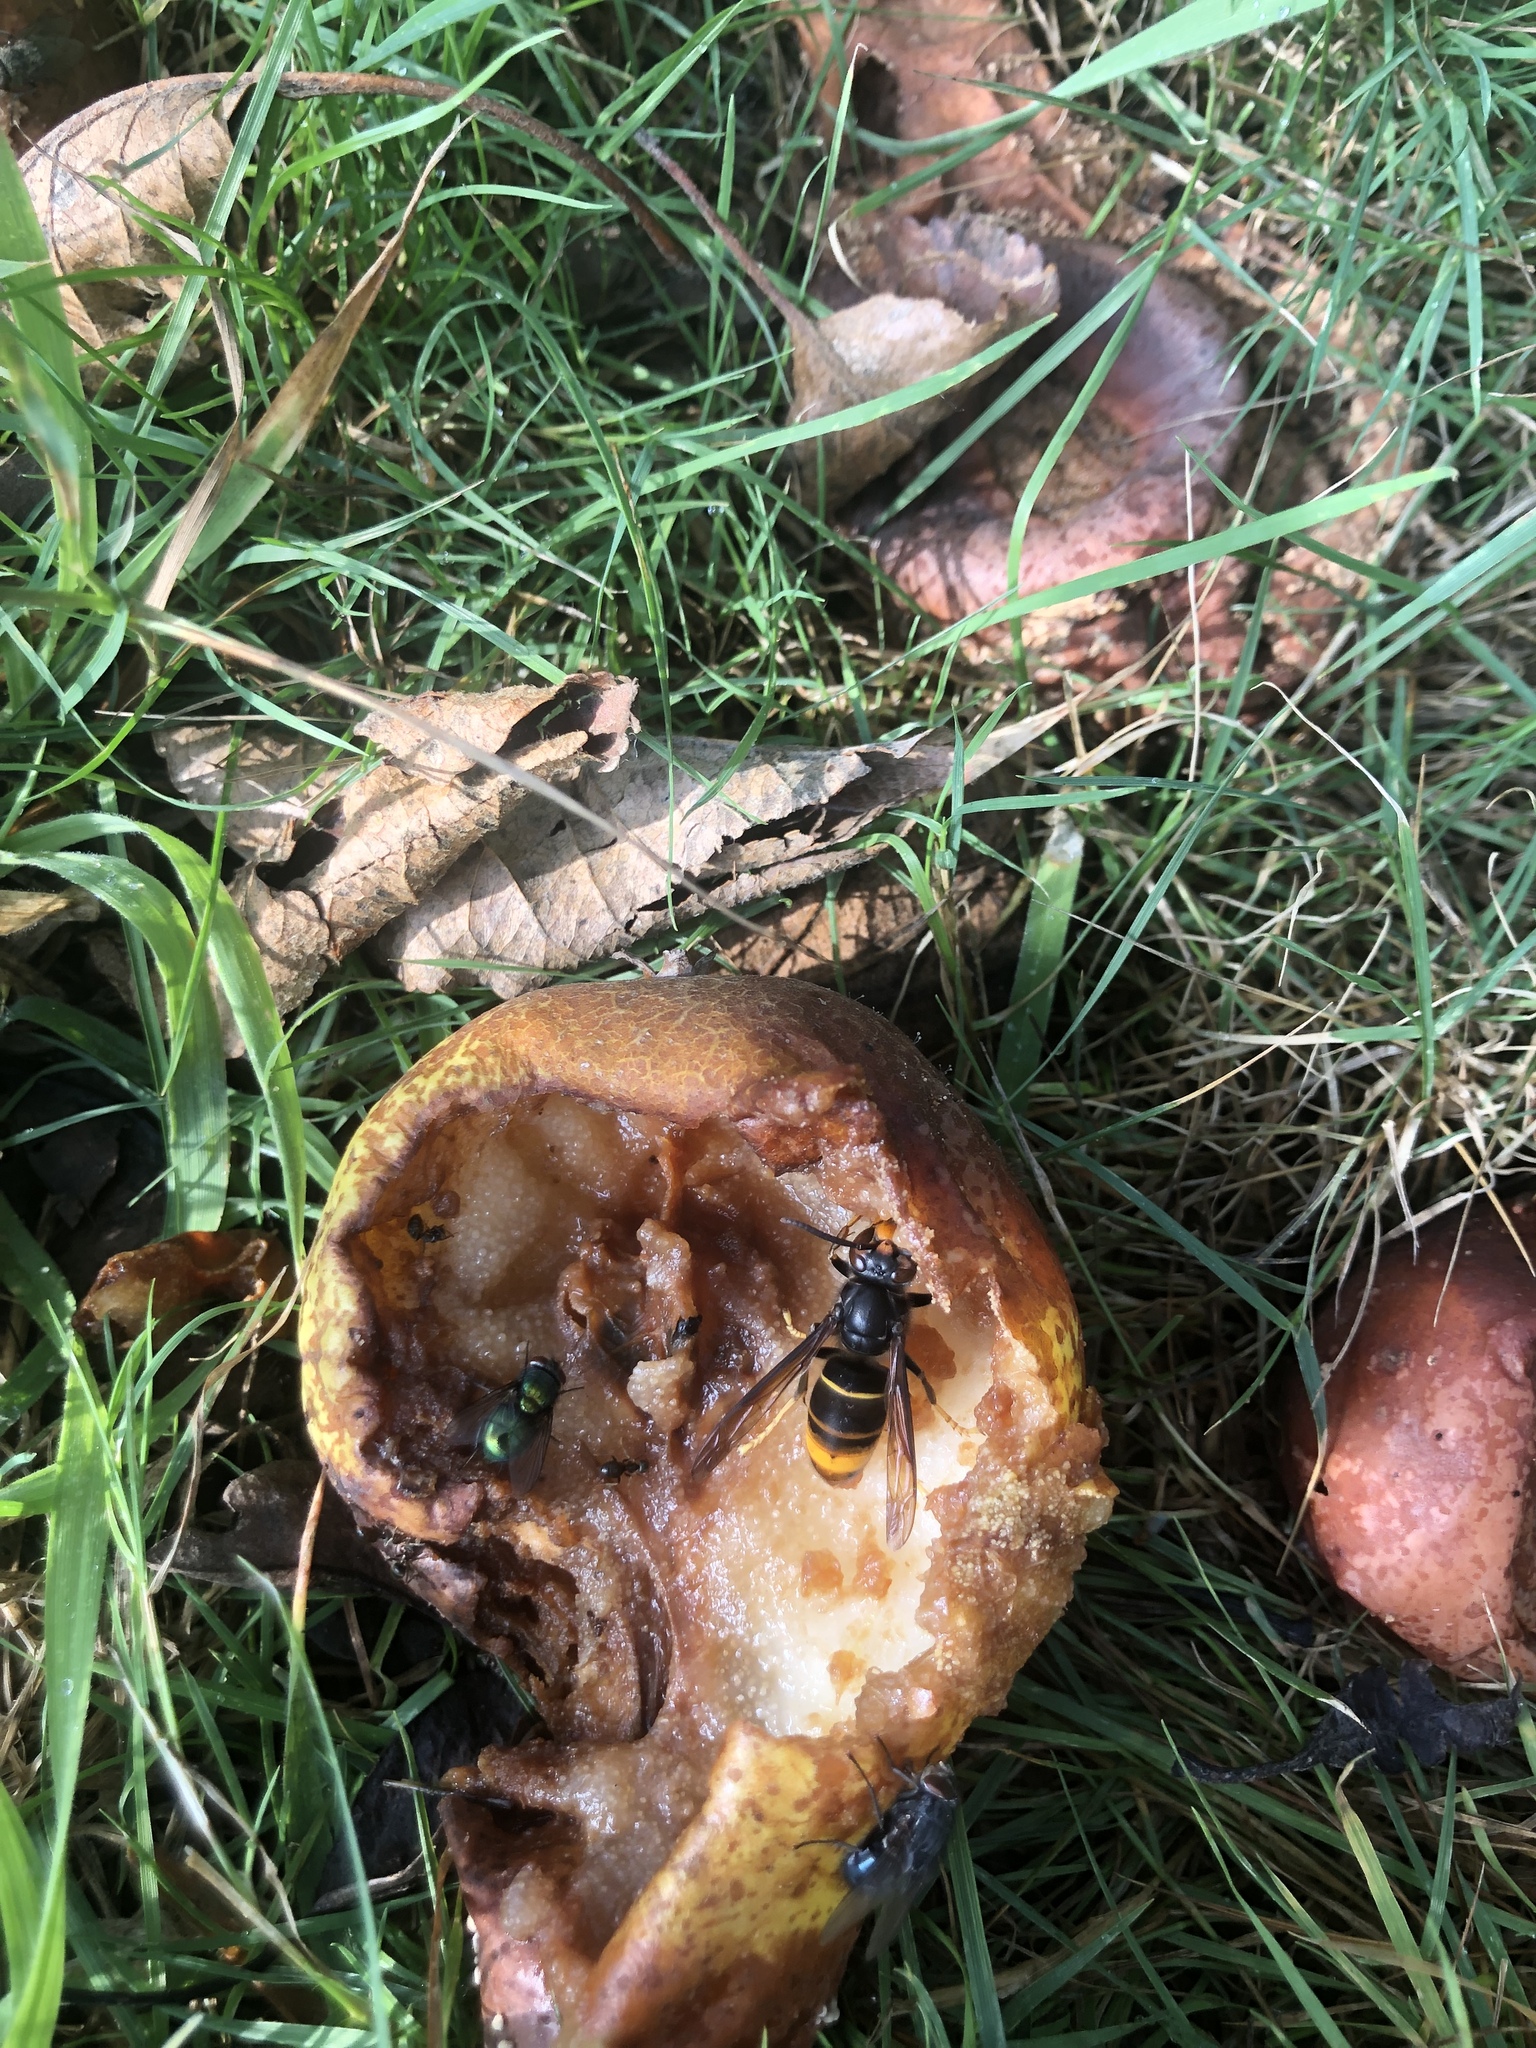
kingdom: Animalia
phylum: Arthropoda
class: Insecta
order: Hymenoptera
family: Vespidae
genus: Vespa
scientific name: Vespa velutina
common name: Asian hornet
